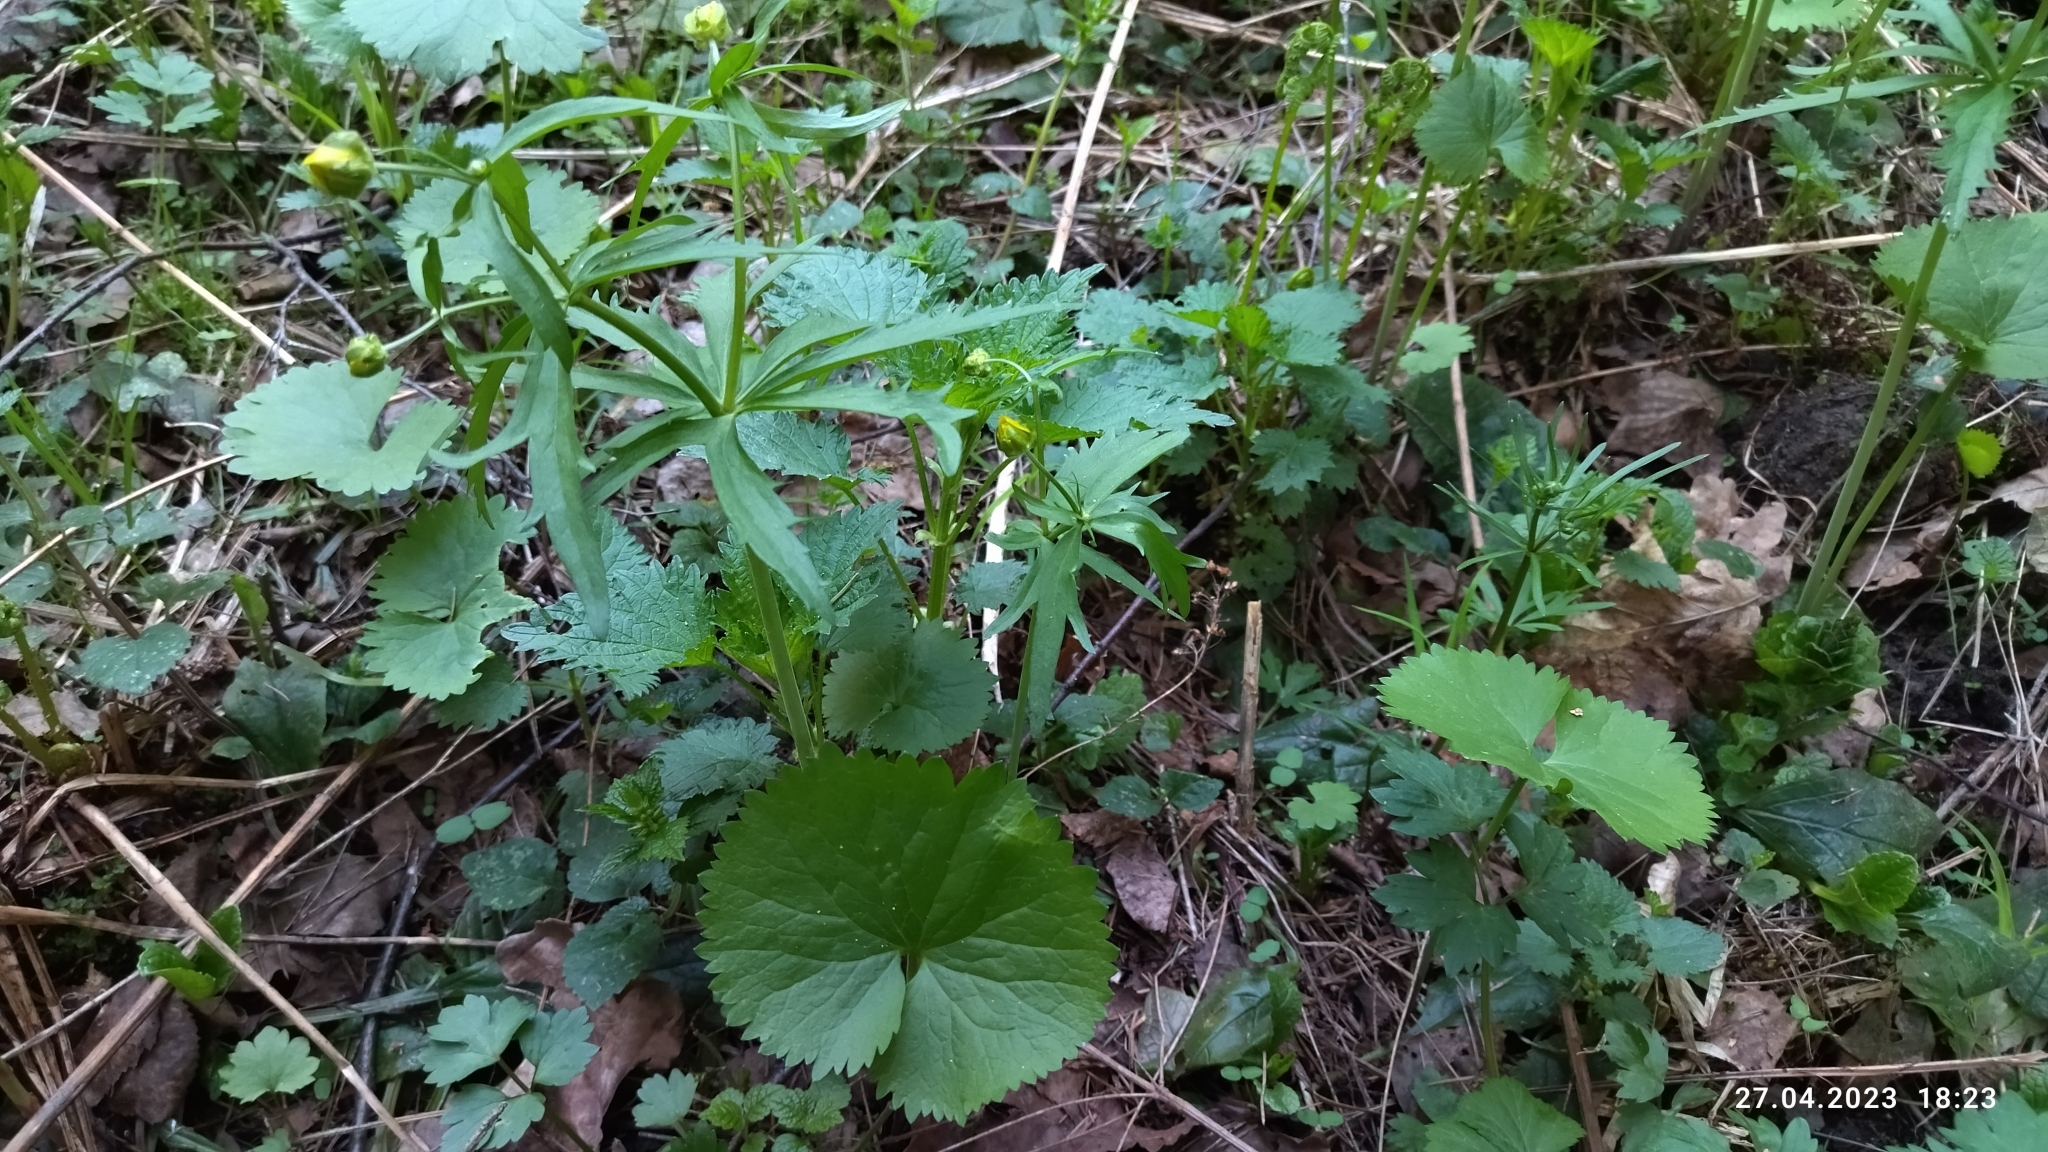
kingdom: Plantae
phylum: Tracheophyta
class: Magnoliopsida
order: Ranunculales
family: Ranunculaceae
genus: Ranunculus
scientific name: Ranunculus cassubicus
